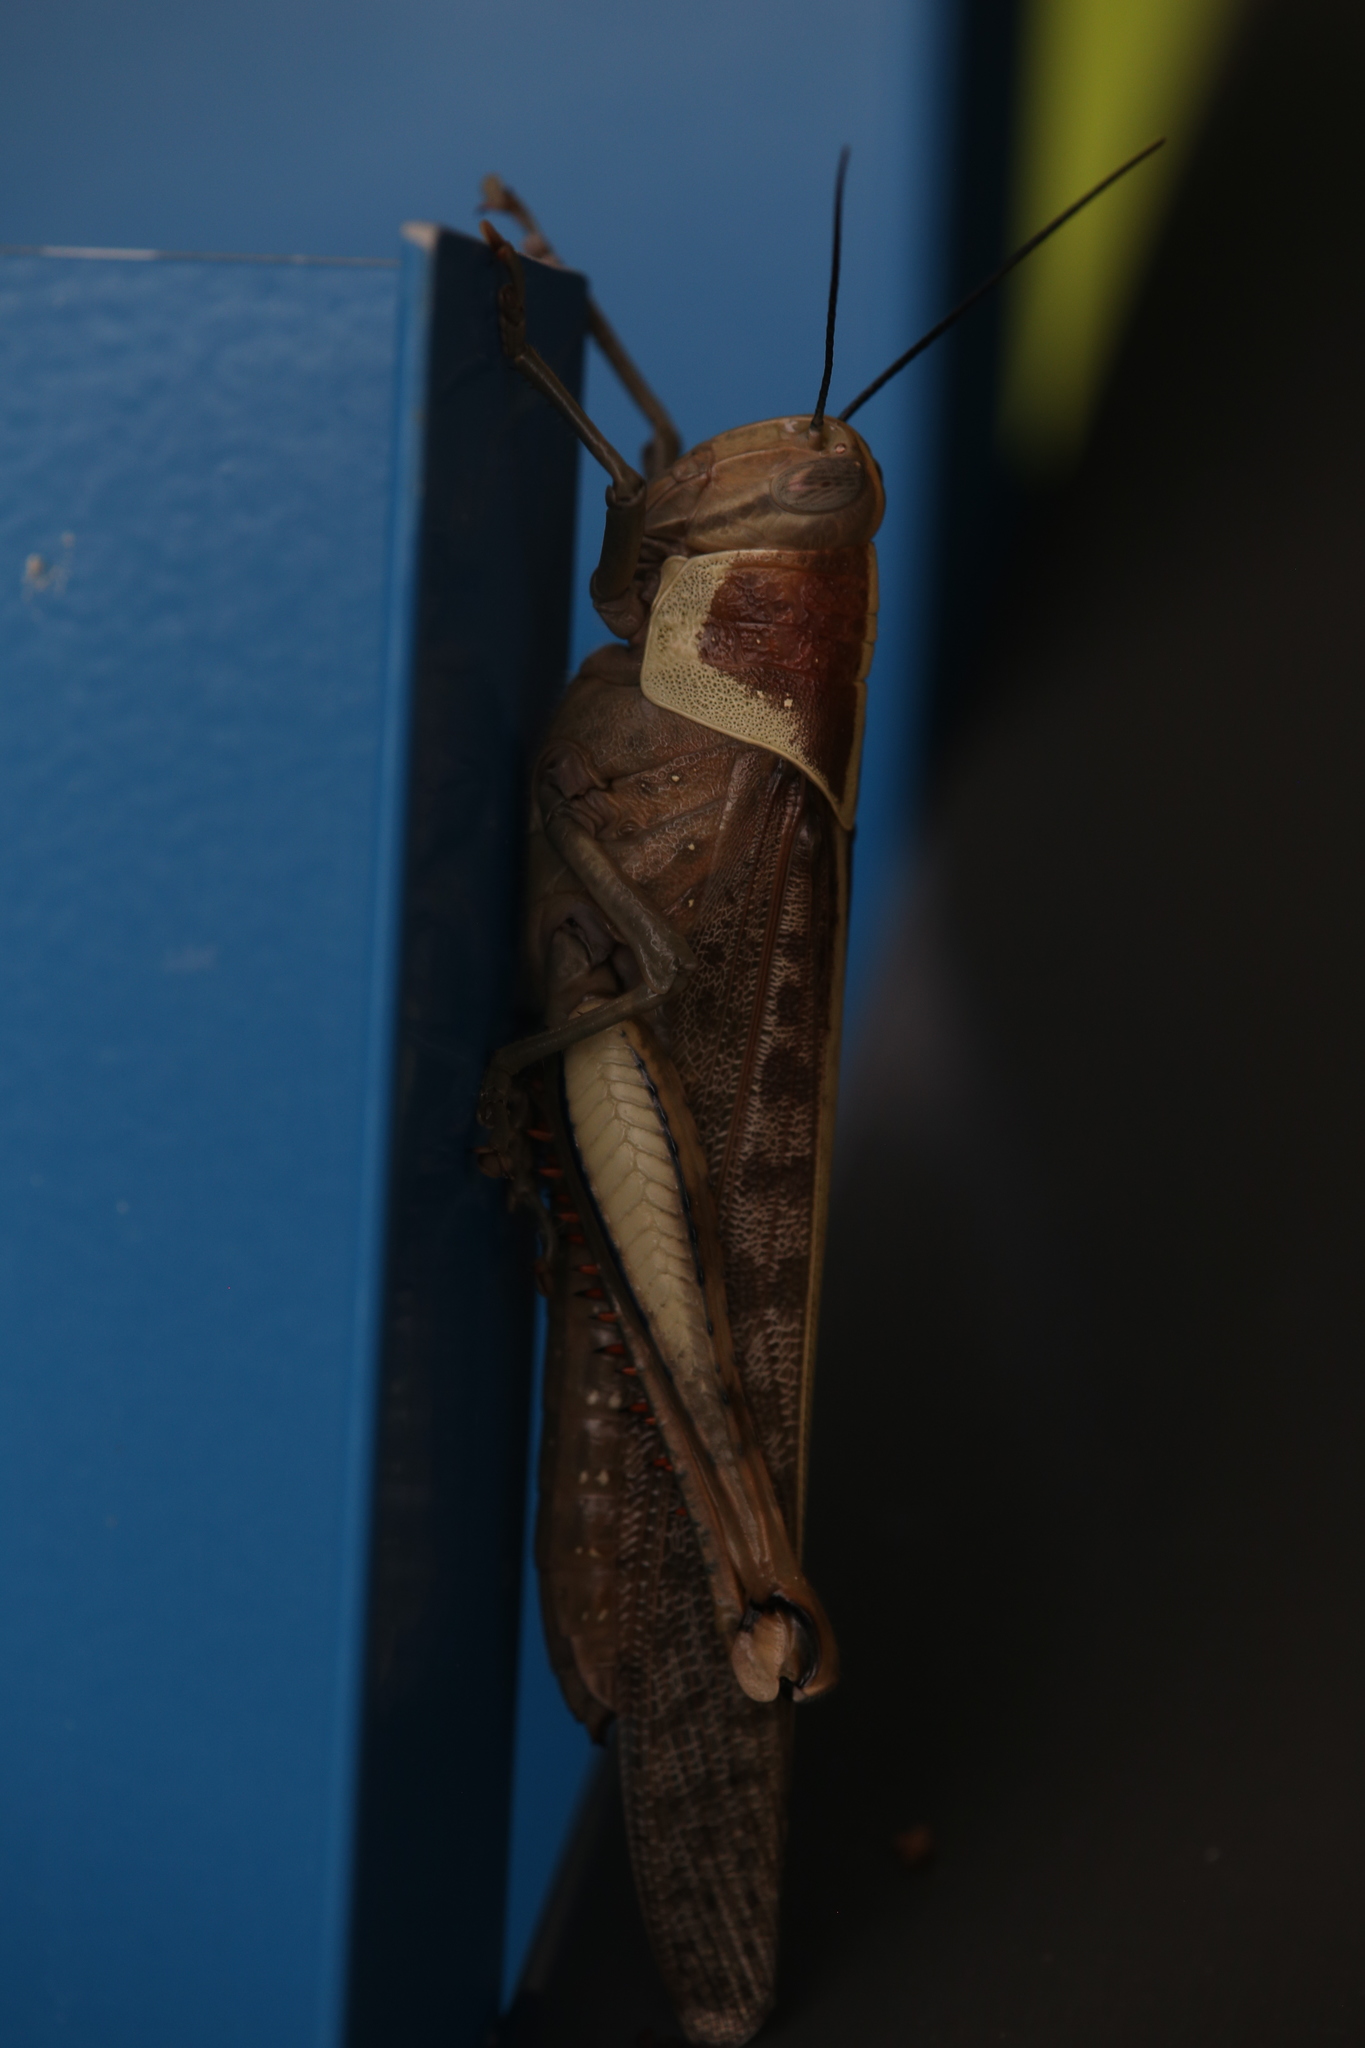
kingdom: Animalia
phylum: Arthropoda
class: Insecta
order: Orthoptera
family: Acrididae
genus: Valanga
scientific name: Valanga irregularis
